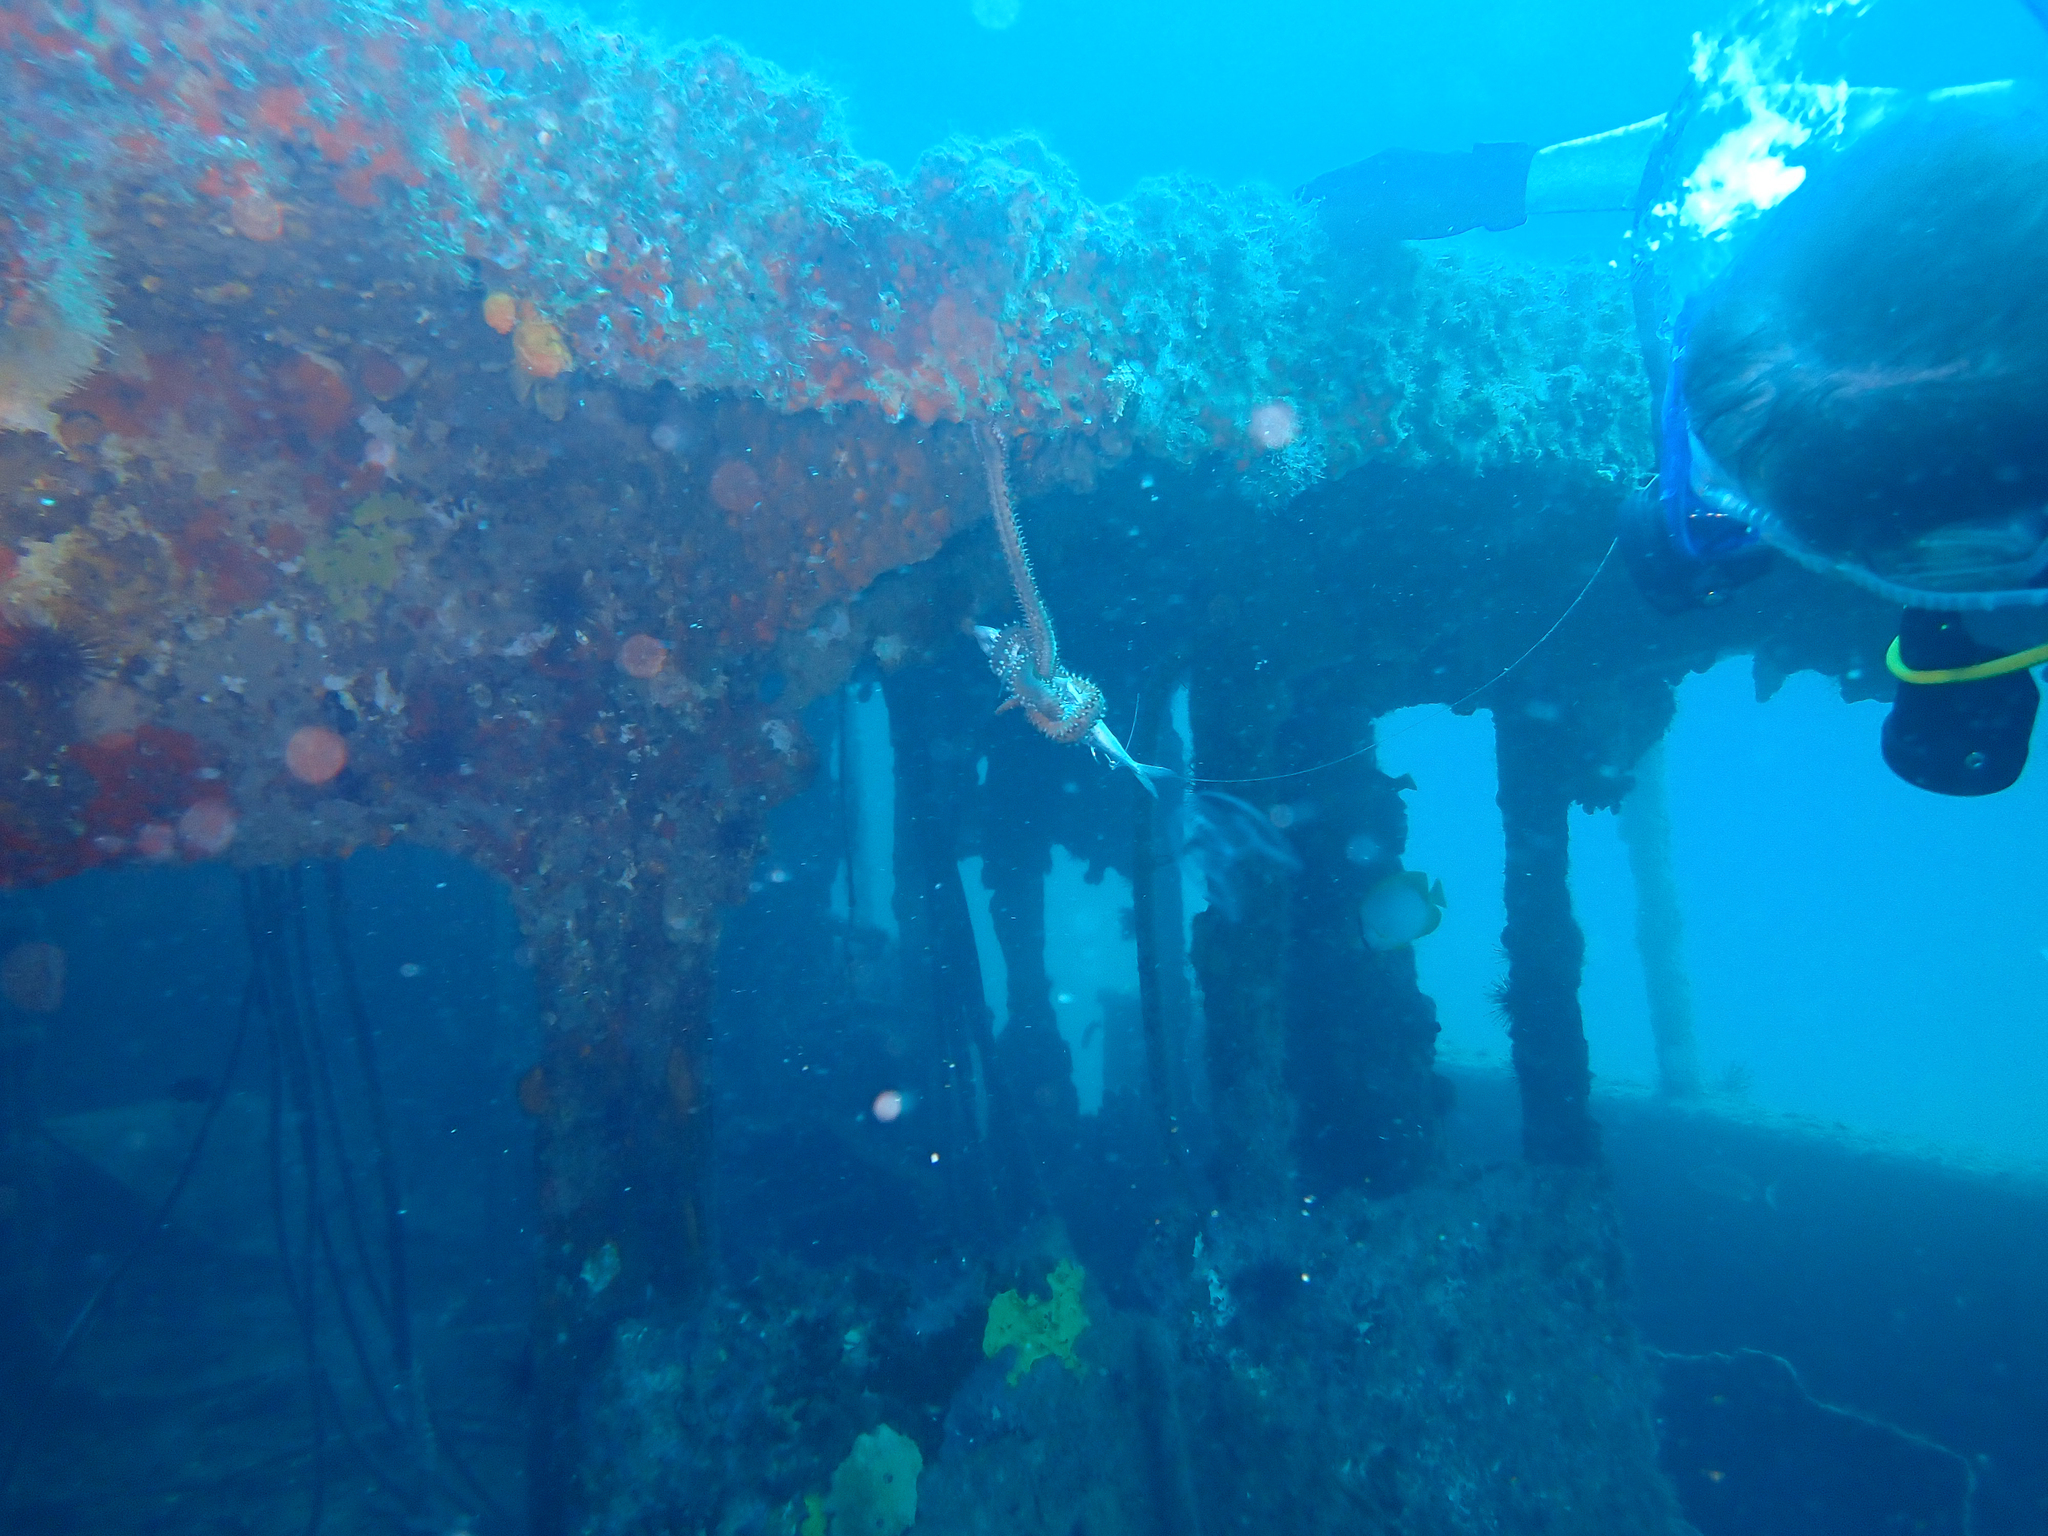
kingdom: Animalia
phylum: Annelida
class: Polychaeta
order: Amphinomida
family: Amphinomidae
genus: Hermodice
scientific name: Hermodice carunculata
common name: Bearded fireworm
